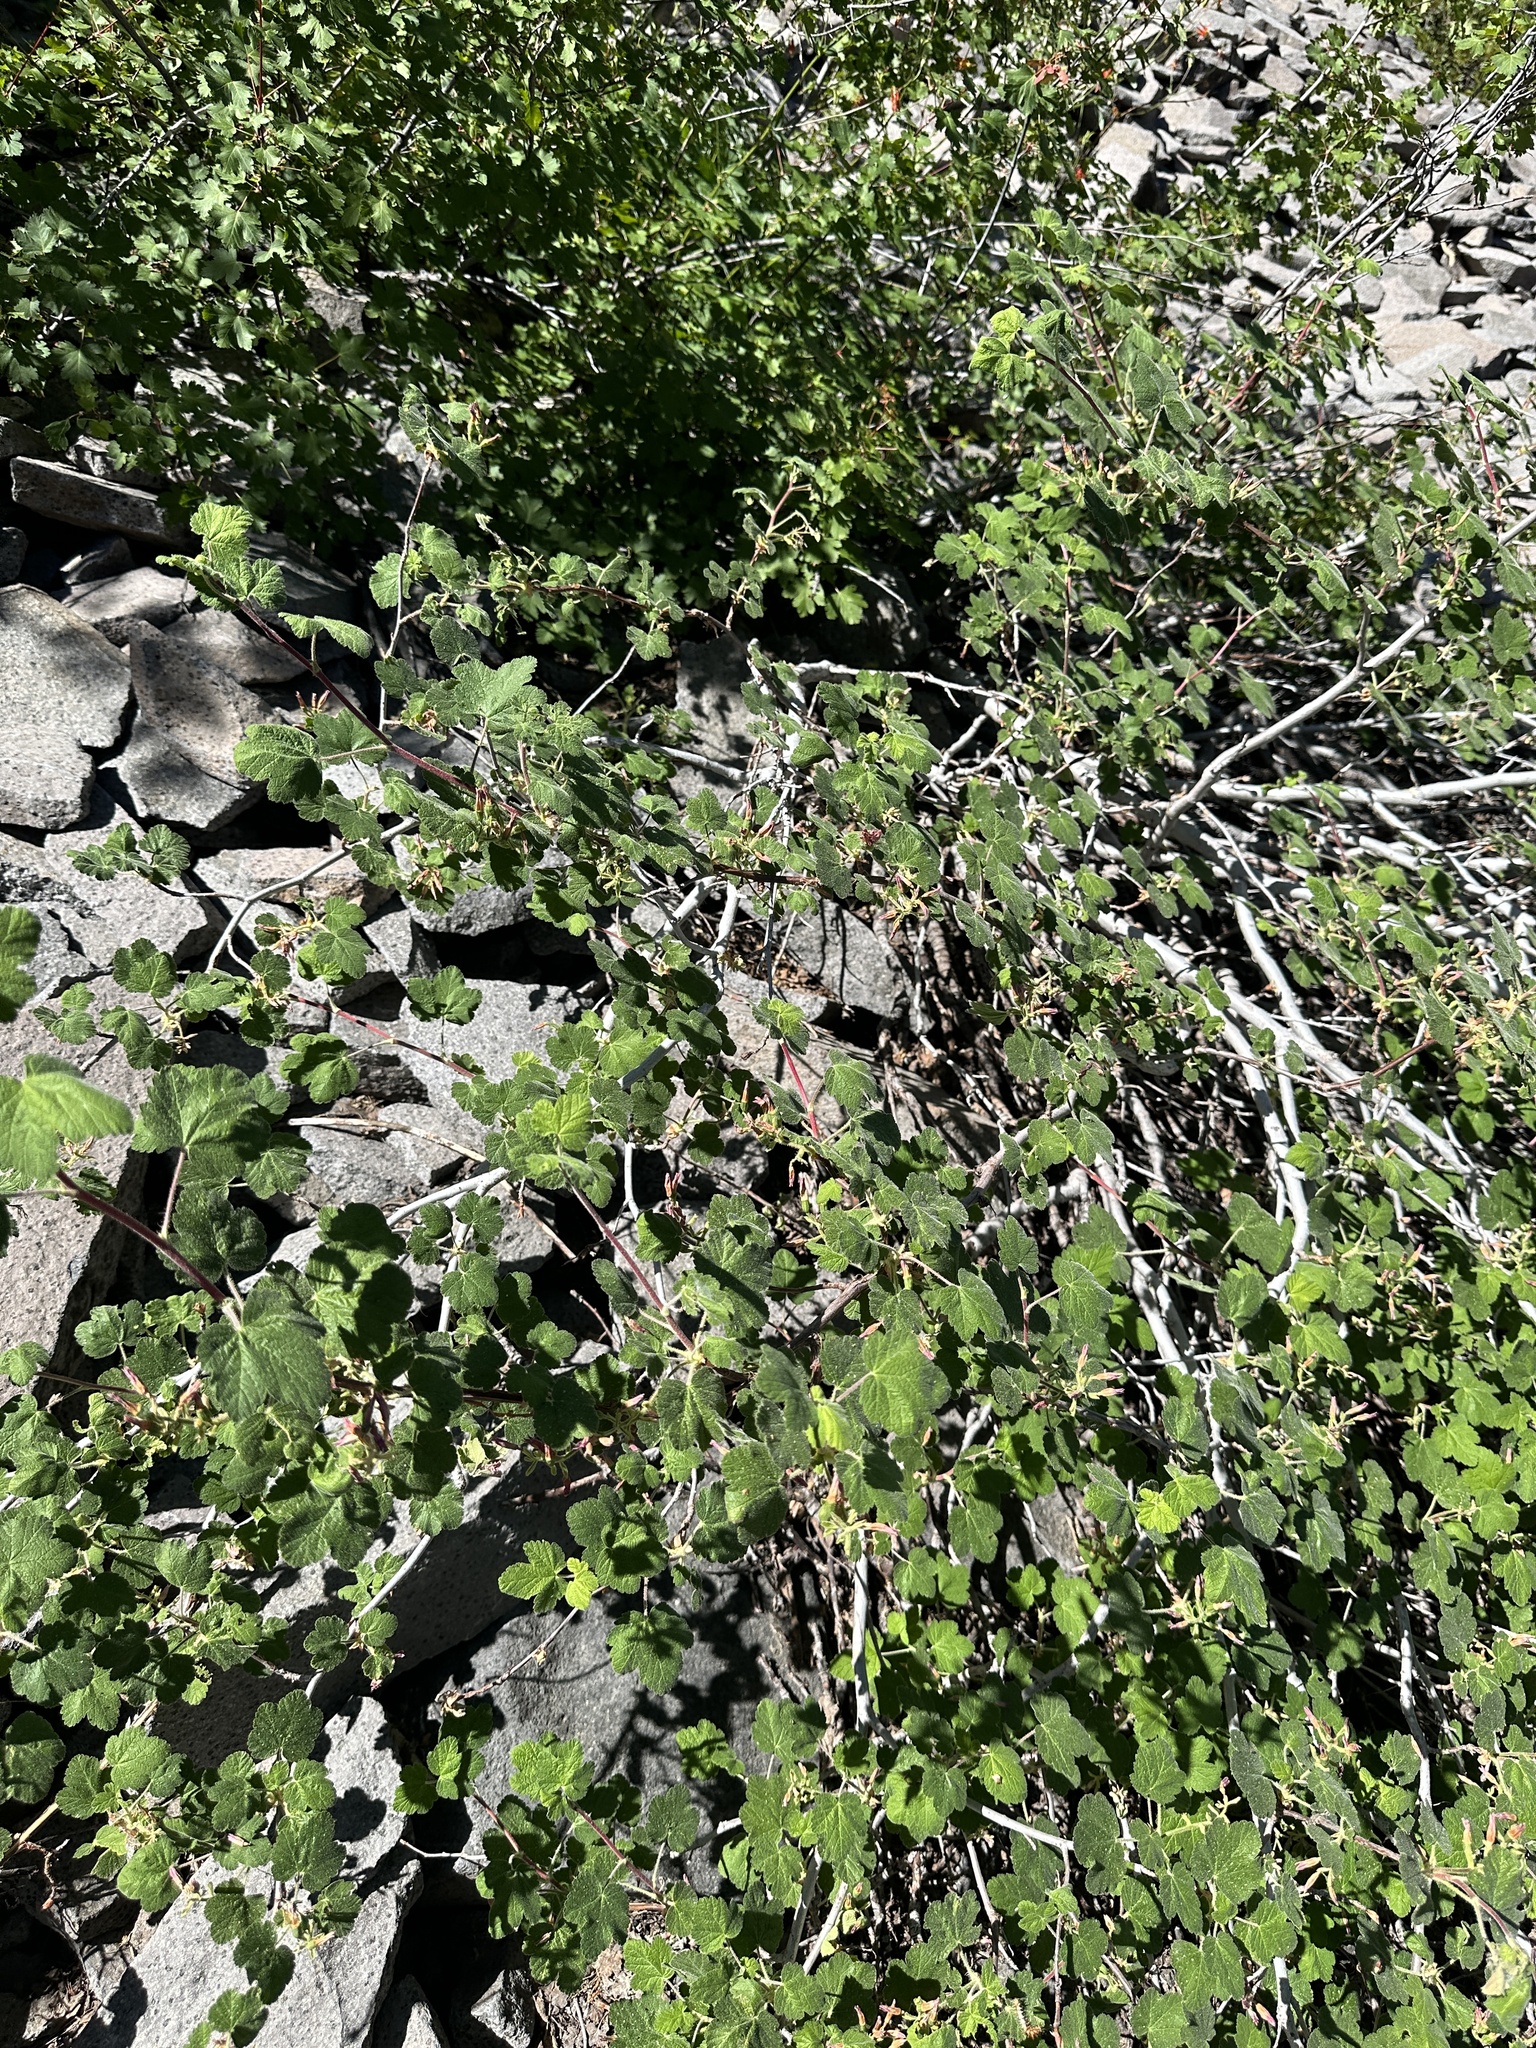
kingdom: Plantae
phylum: Tracheophyta
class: Magnoliopsida
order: Saxifragales
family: Grossulariaceae
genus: Ribes
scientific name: Ribes viscosissimum
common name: Sticky currant
